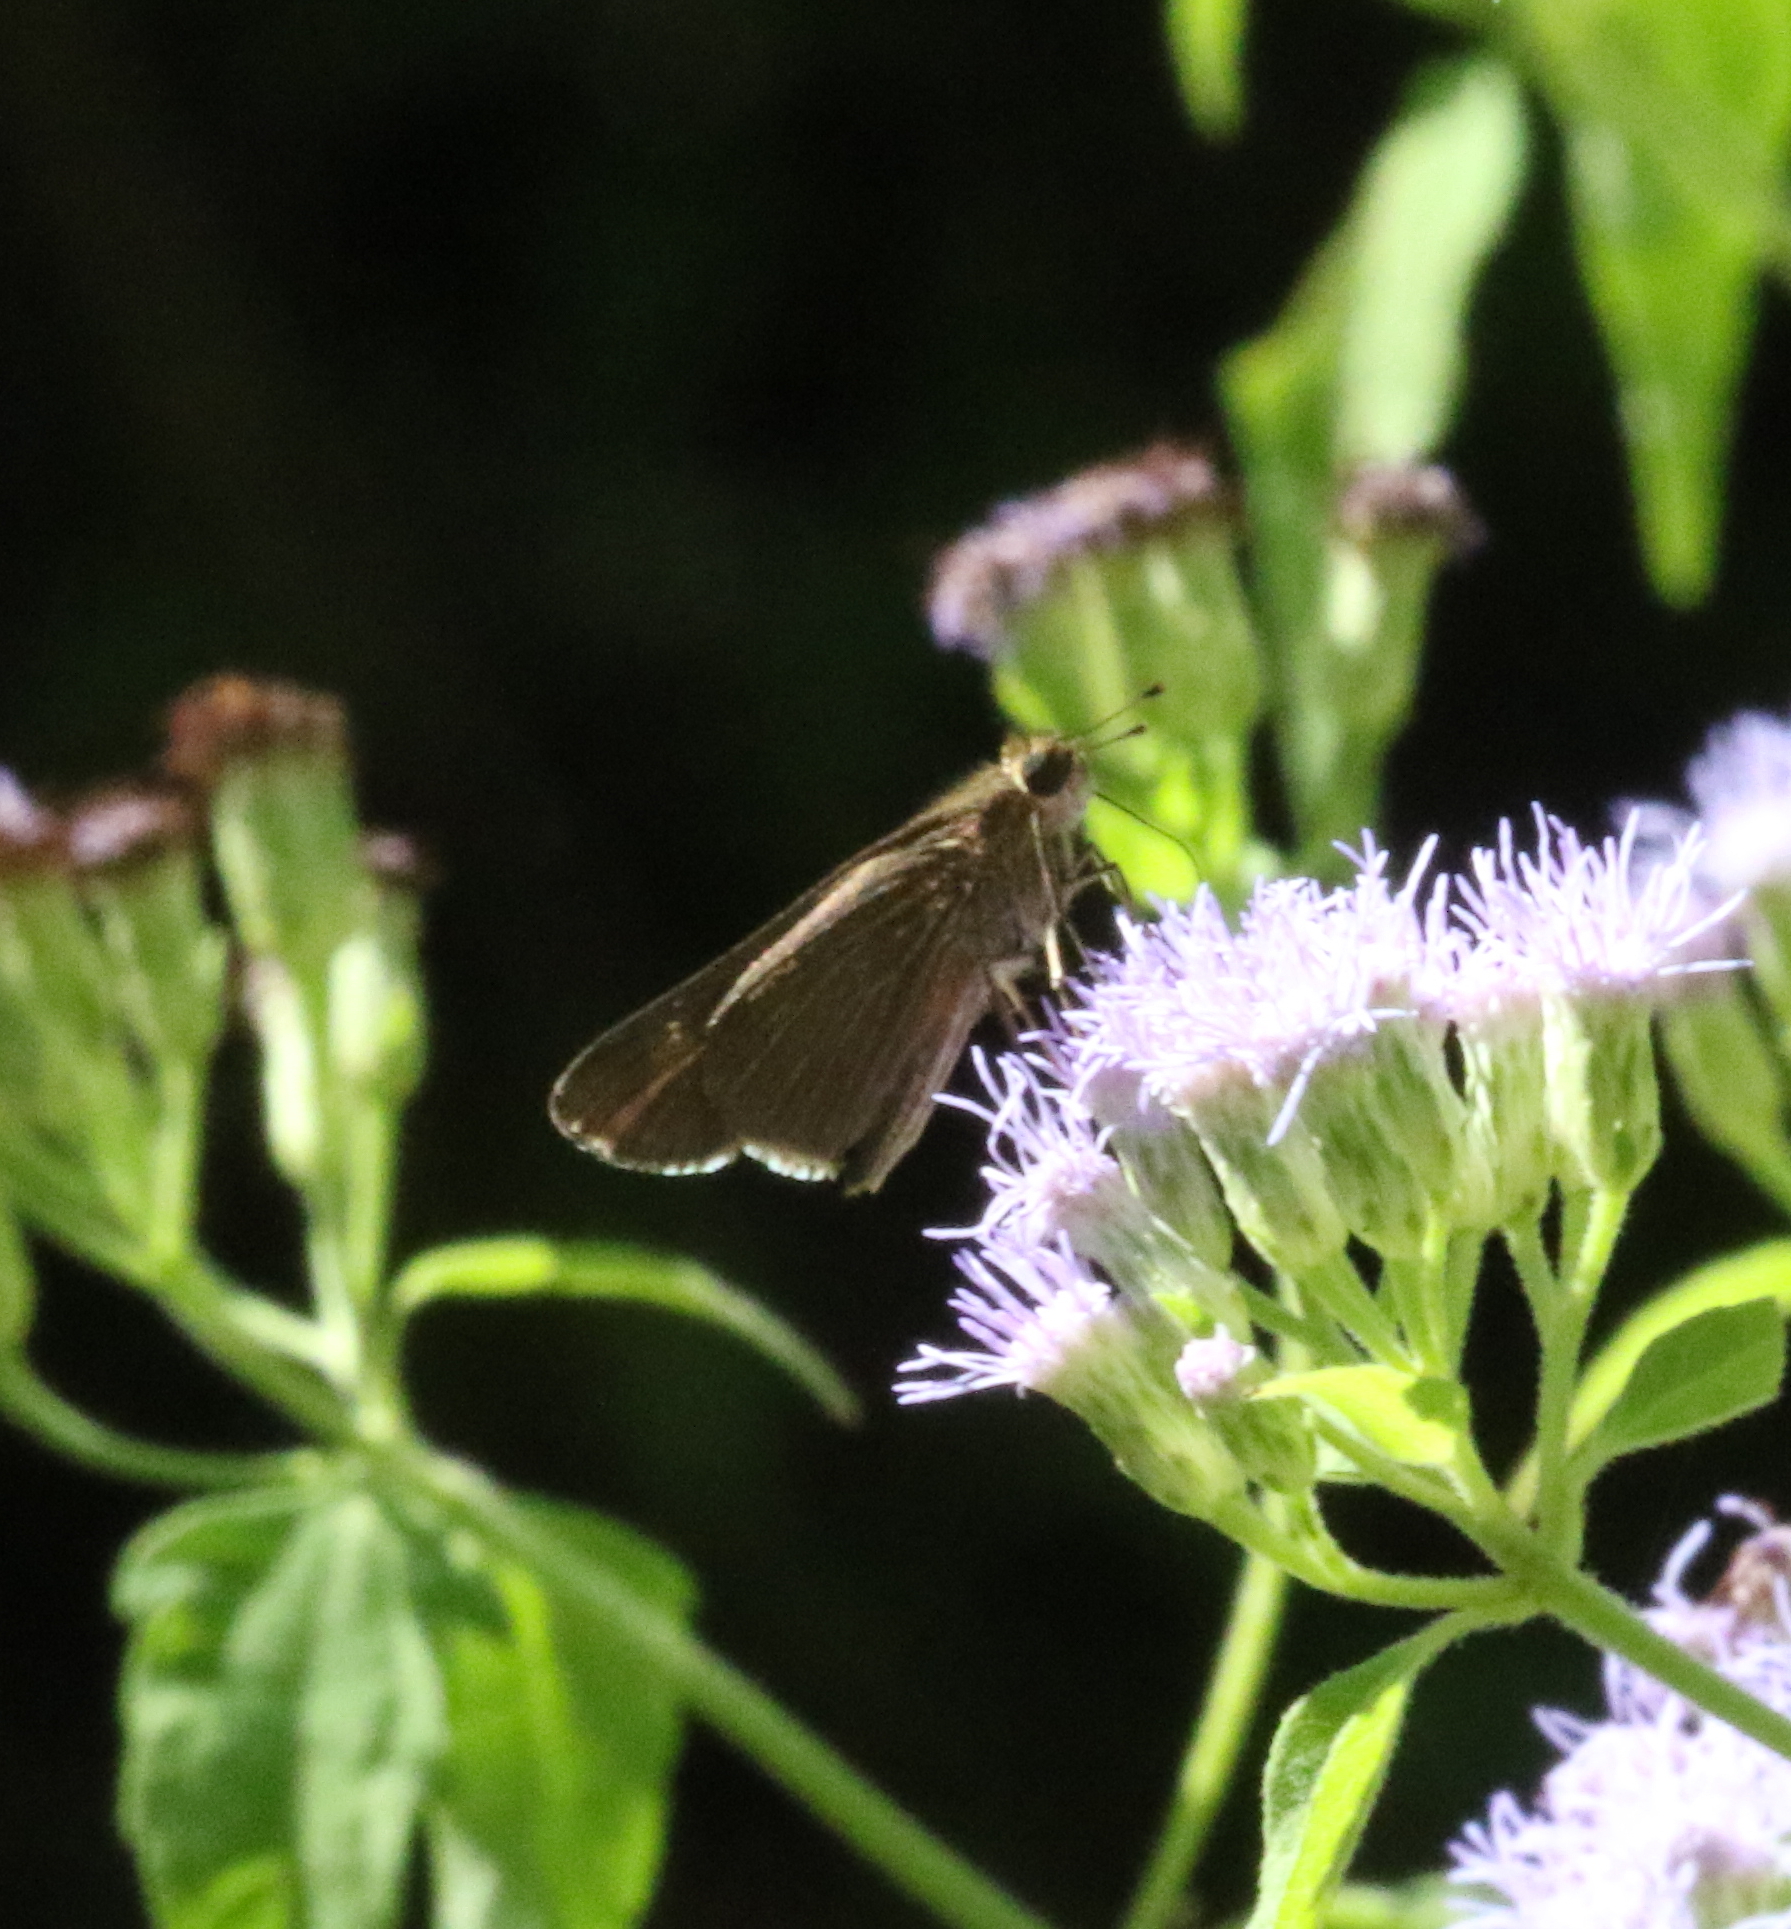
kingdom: Animalia
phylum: Arthropoda
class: Insecta
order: Lepidoptera
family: Hesperiidae
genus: Panoquina
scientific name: Panoquina ocola
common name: Ocola skipper
